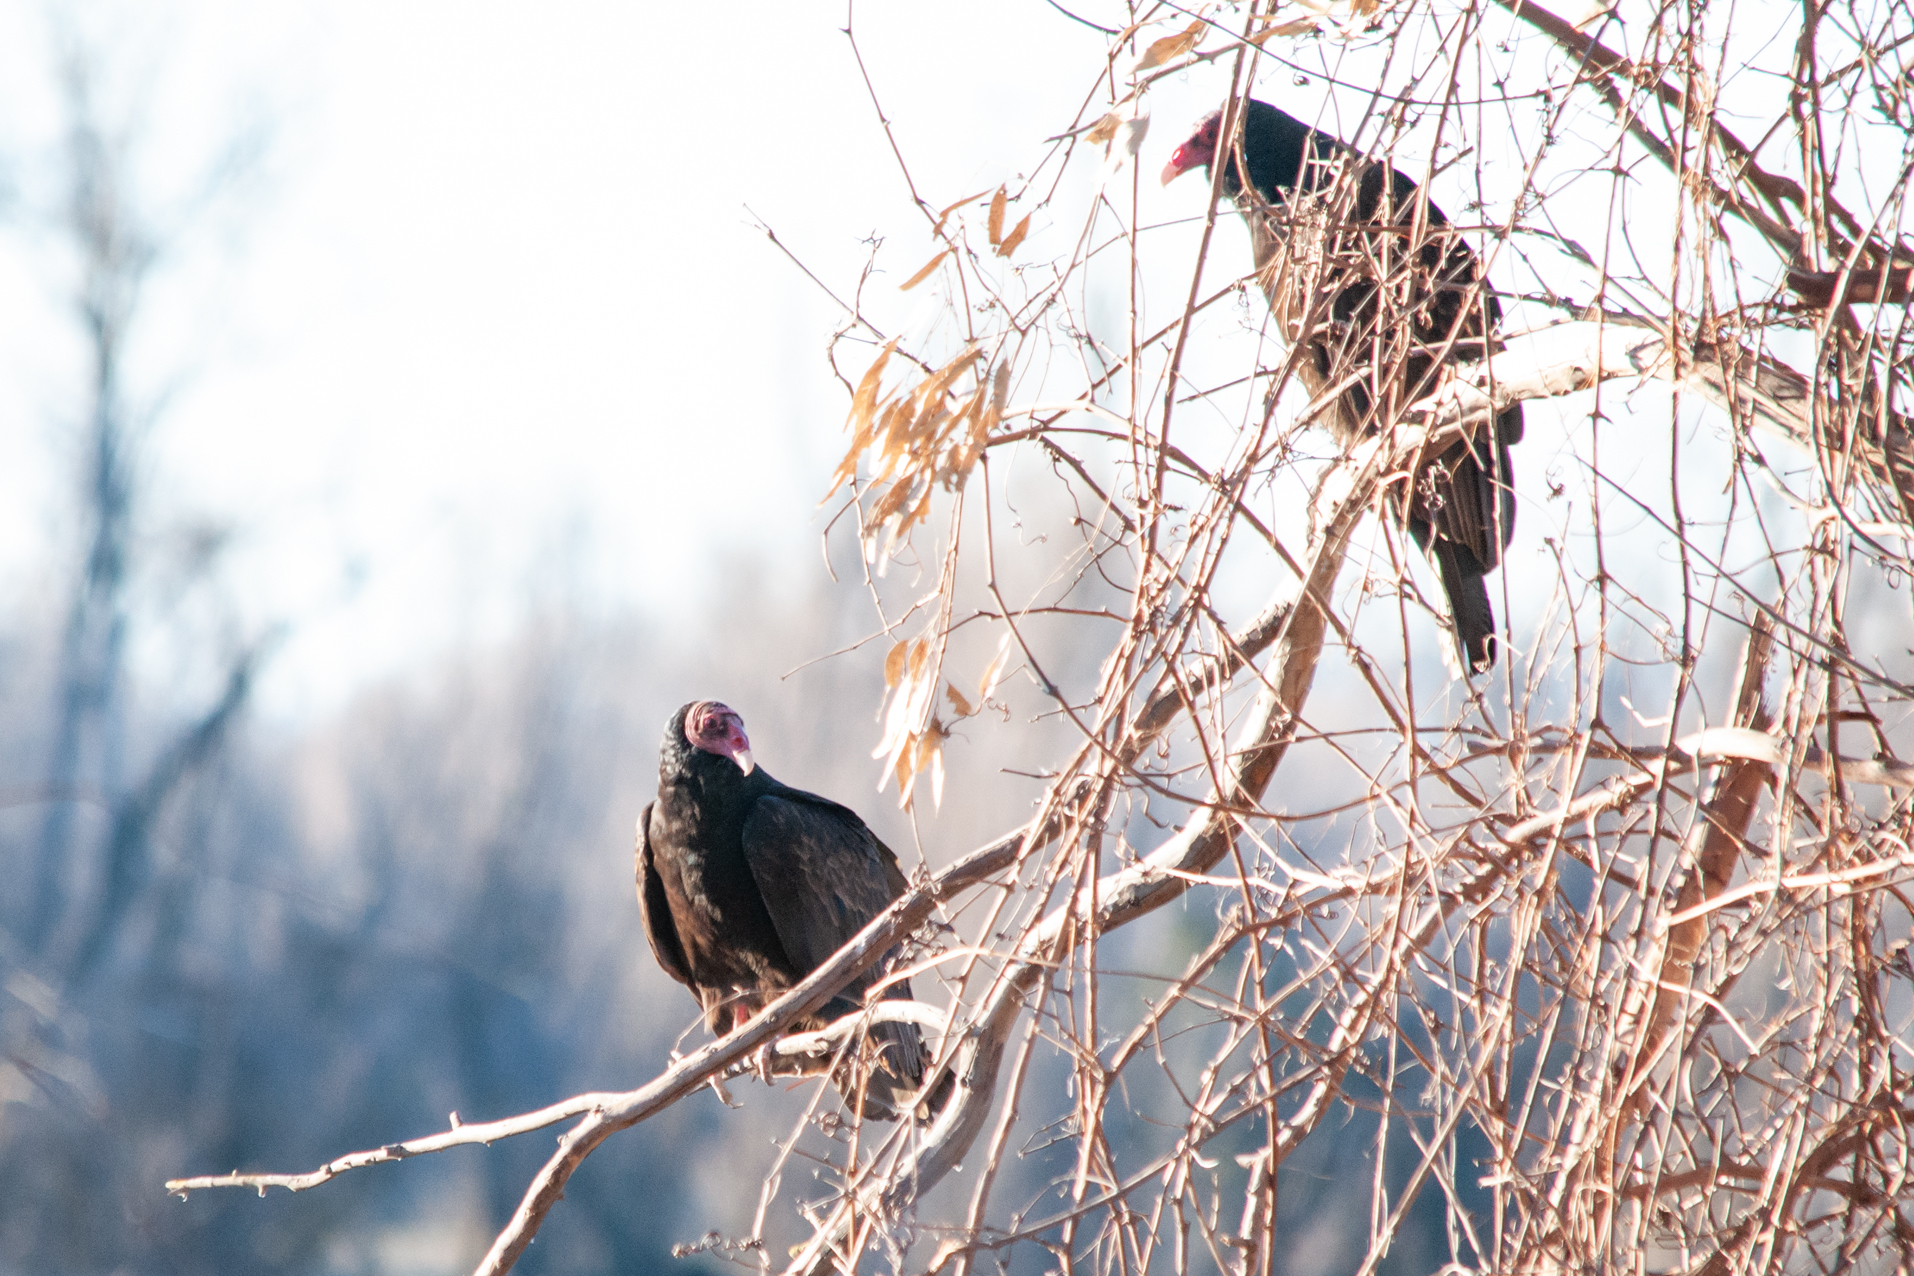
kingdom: Animalia
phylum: Chordata
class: Aves
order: Accipitriformes
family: Cathartidae
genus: Cathartes
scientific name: Cathartes aura
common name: Turkey vulture
